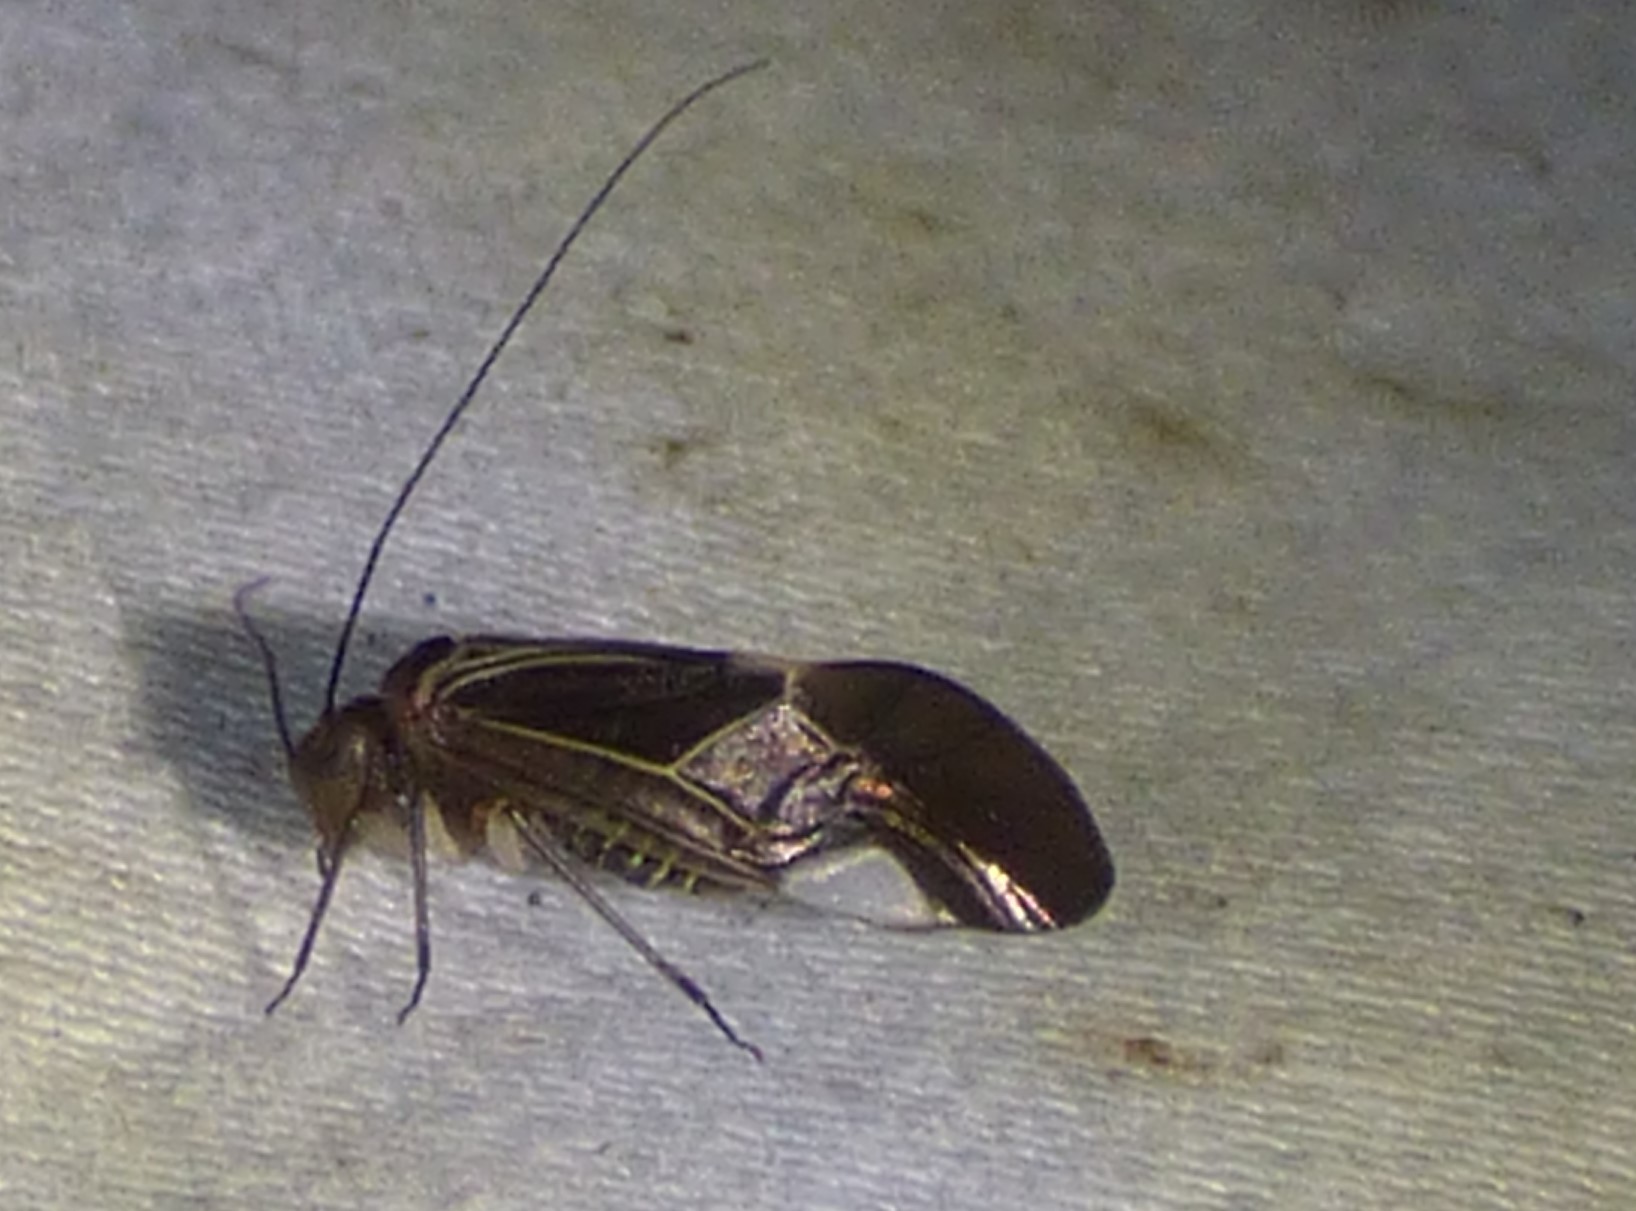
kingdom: Animalia
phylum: Arthropoda
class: Insecta
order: Psocodea
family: Psocidae
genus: Cerastipsocus
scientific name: Cerastipsocus venosus
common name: Tree cattle
